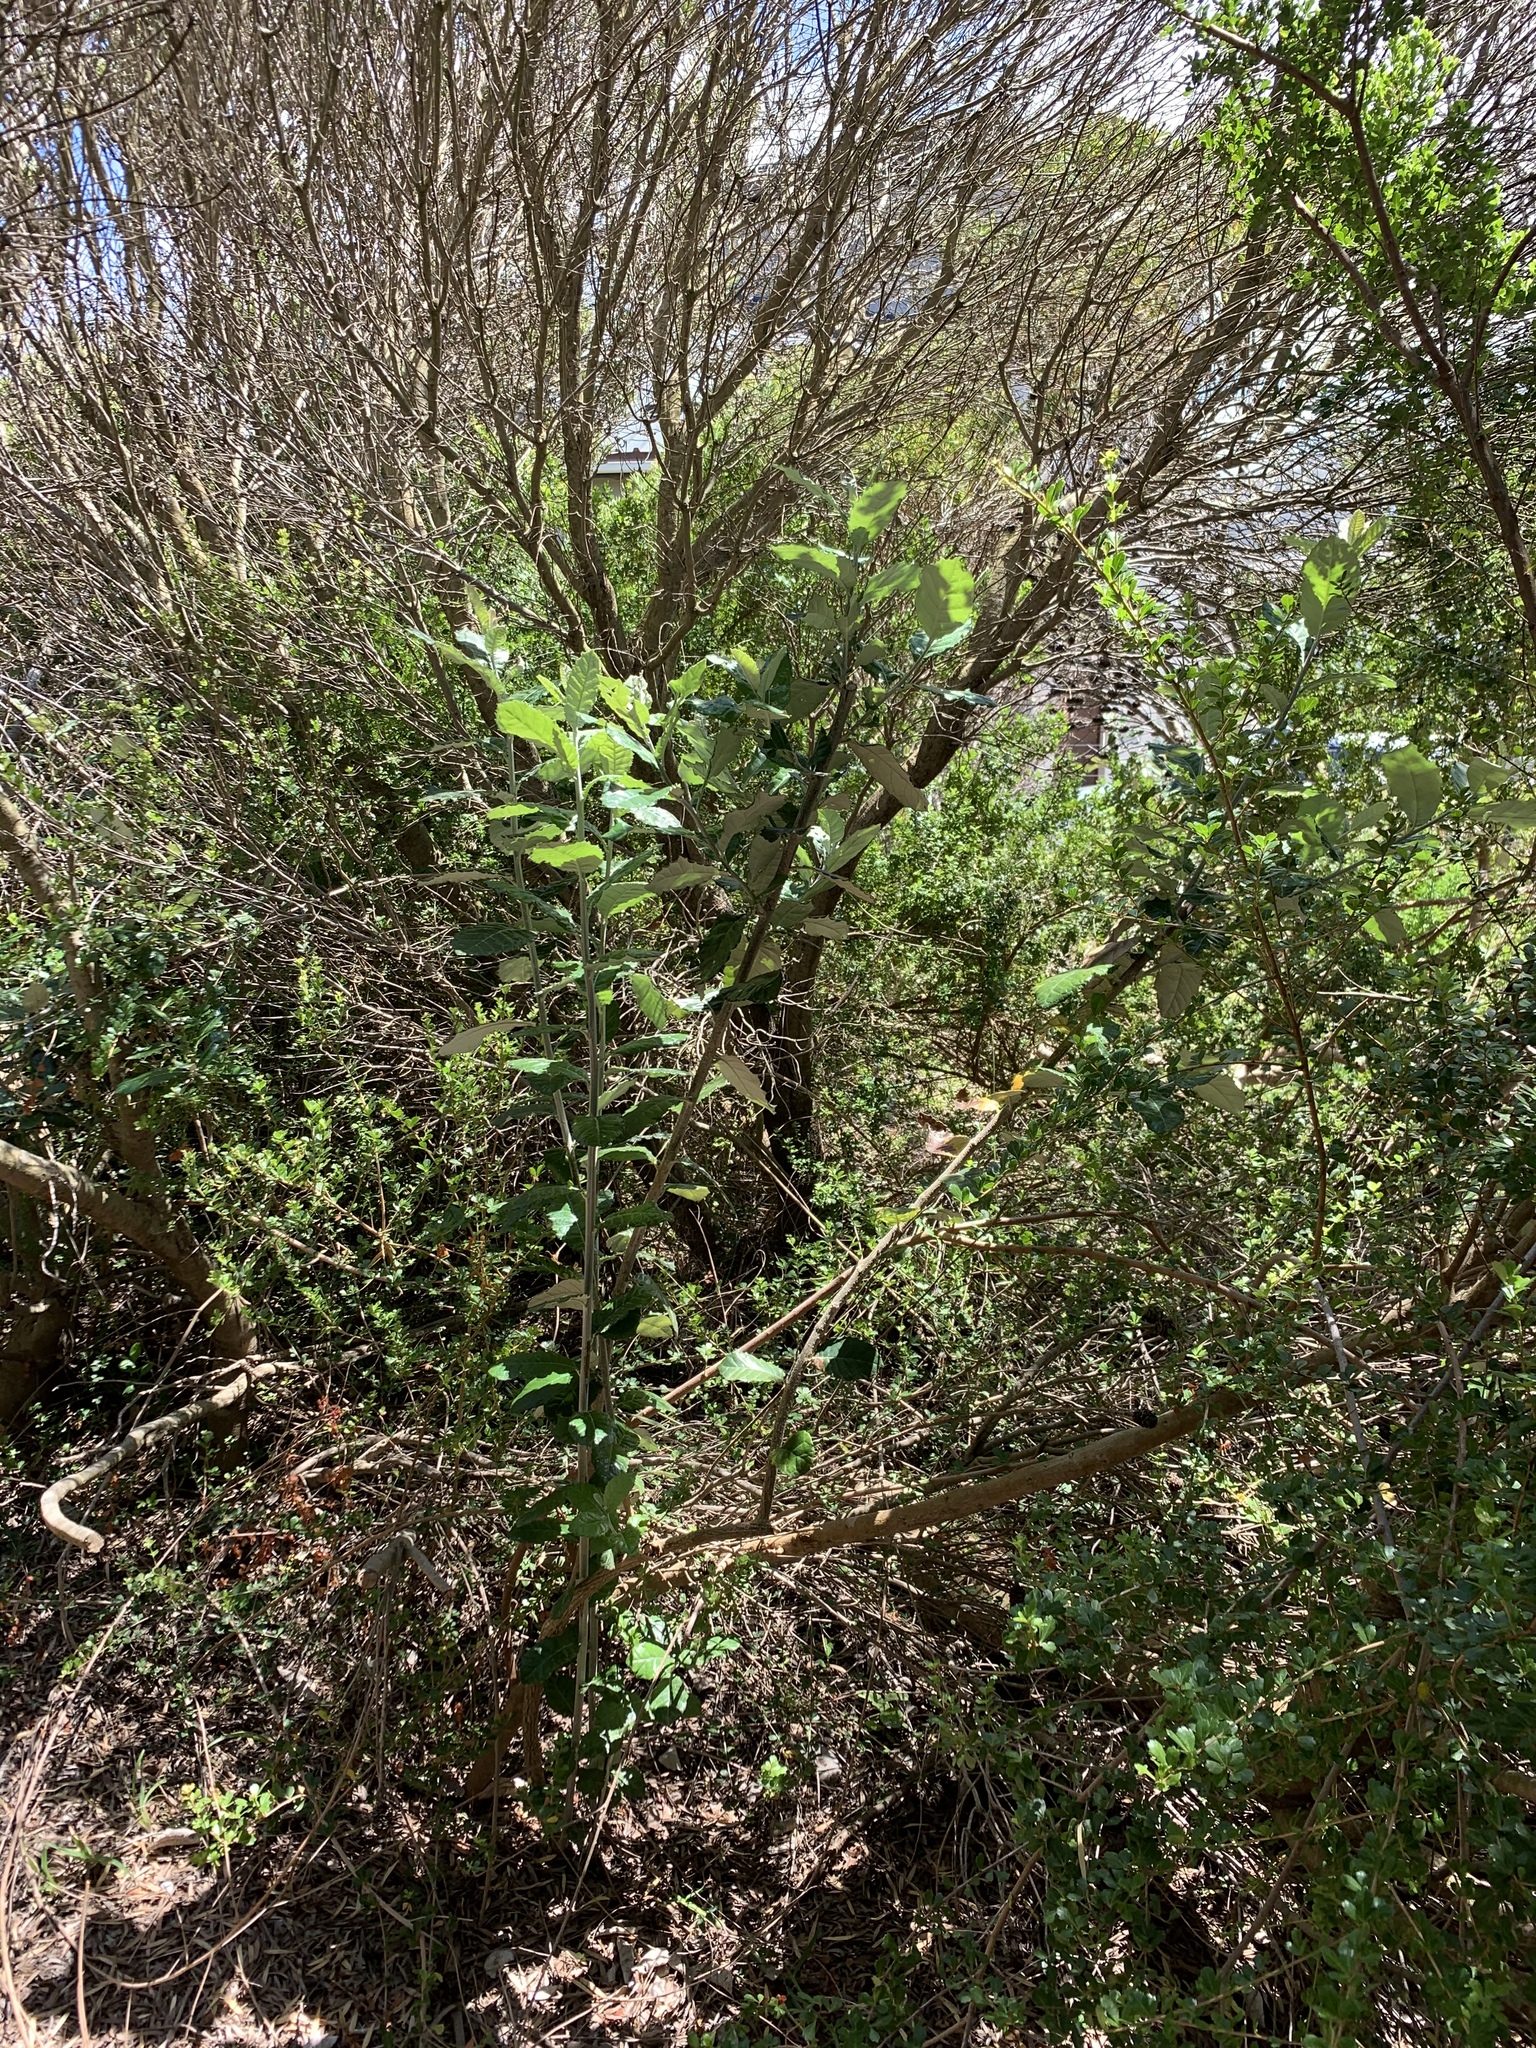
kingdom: Plantae
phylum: Tracheophyta
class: Magnoliopsida
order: Asterales
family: Asteraceae
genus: Brachylaena
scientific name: Brachylaena discolor
